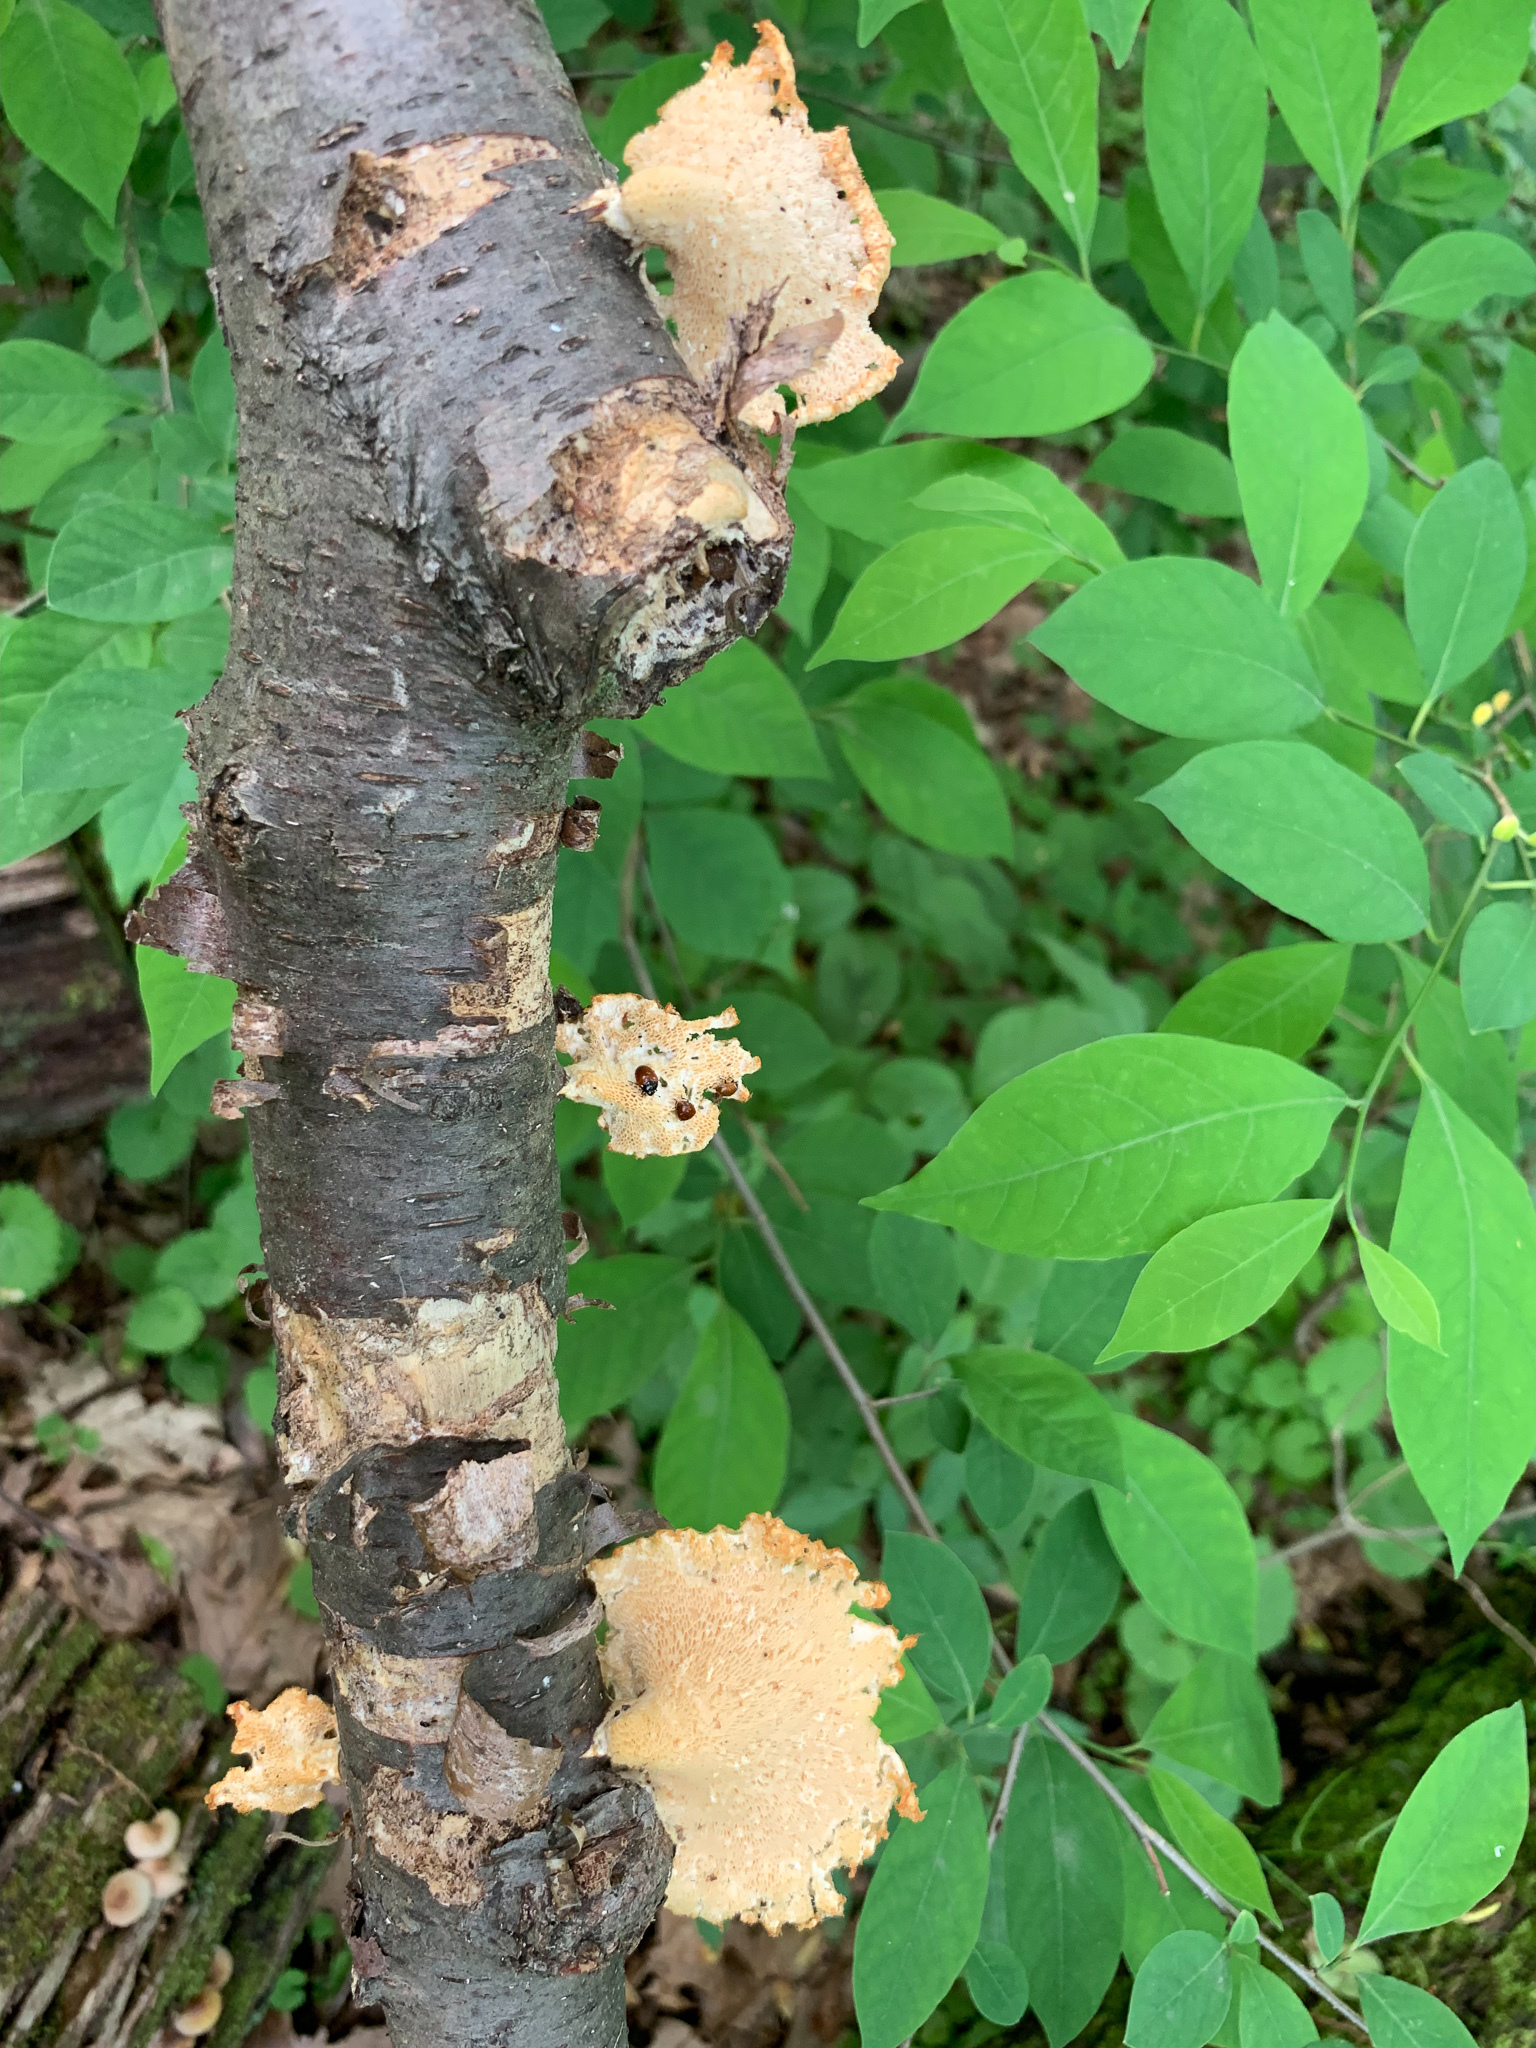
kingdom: Fungi
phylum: Basidiomycota
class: Agaricomycetes
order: Polyporales
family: Polyporaceae
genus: Neofavolus
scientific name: Neofavolus alveolaris
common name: Hexagonal-pored polypore
